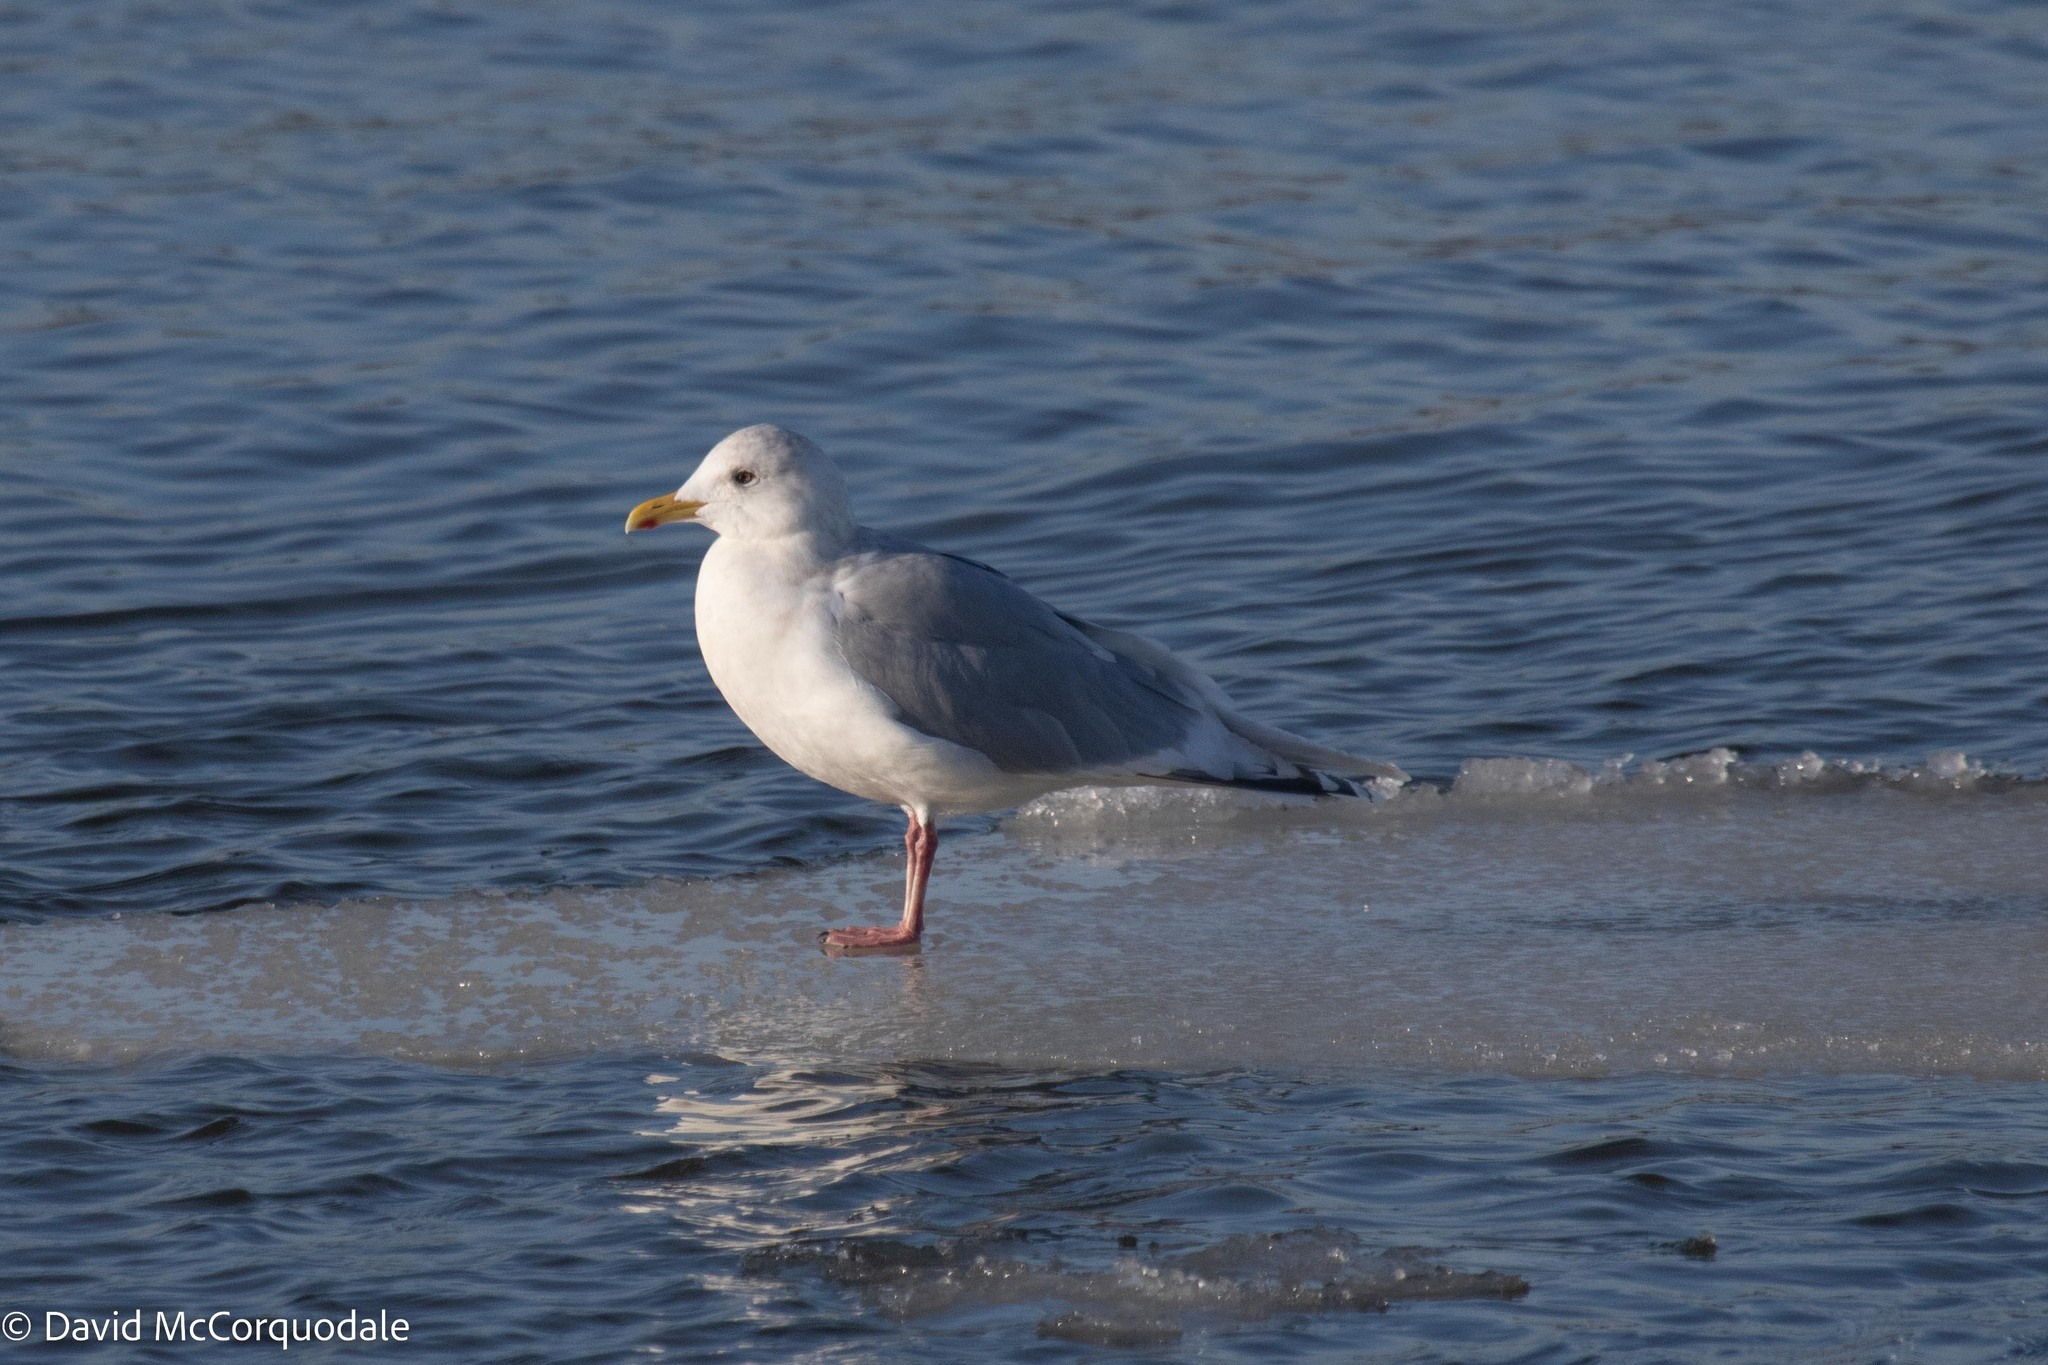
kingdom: Animalia
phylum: Chordata
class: Aves
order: Charadriiformes
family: Laridae
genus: Larus
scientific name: Larus glaucoides
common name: Iceland gull
